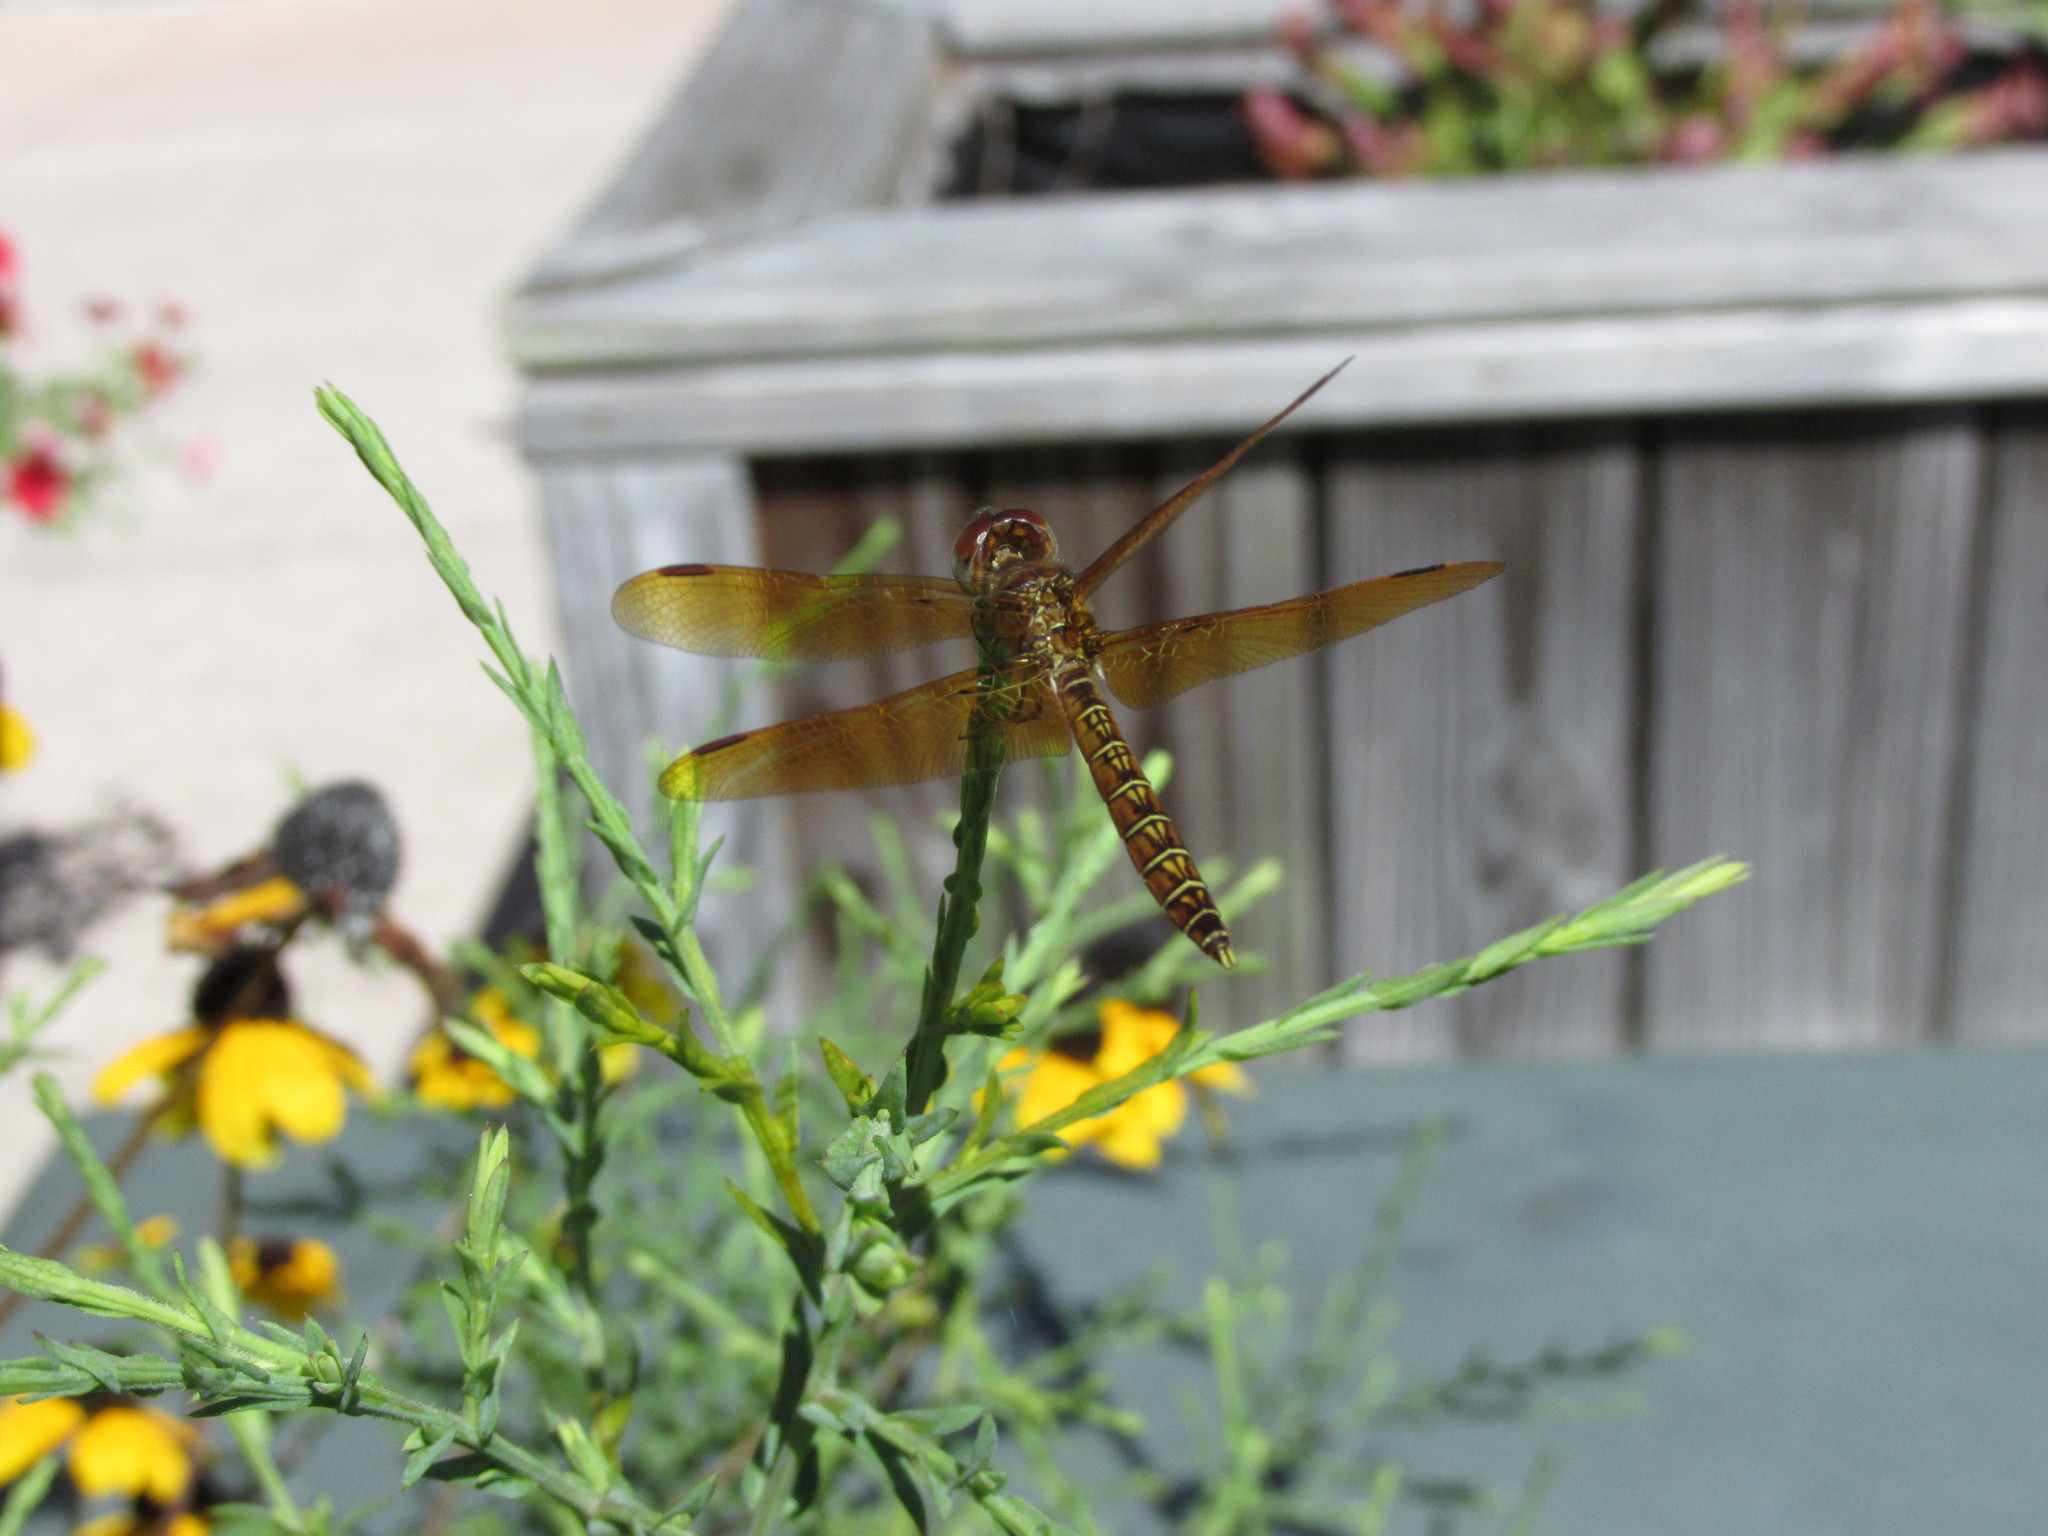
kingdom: Animalia
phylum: Arthropoda
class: Insecta
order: Odonata
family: Libellulidae
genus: Perithemis
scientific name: Perithemis tenera
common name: Eastern amberwing
